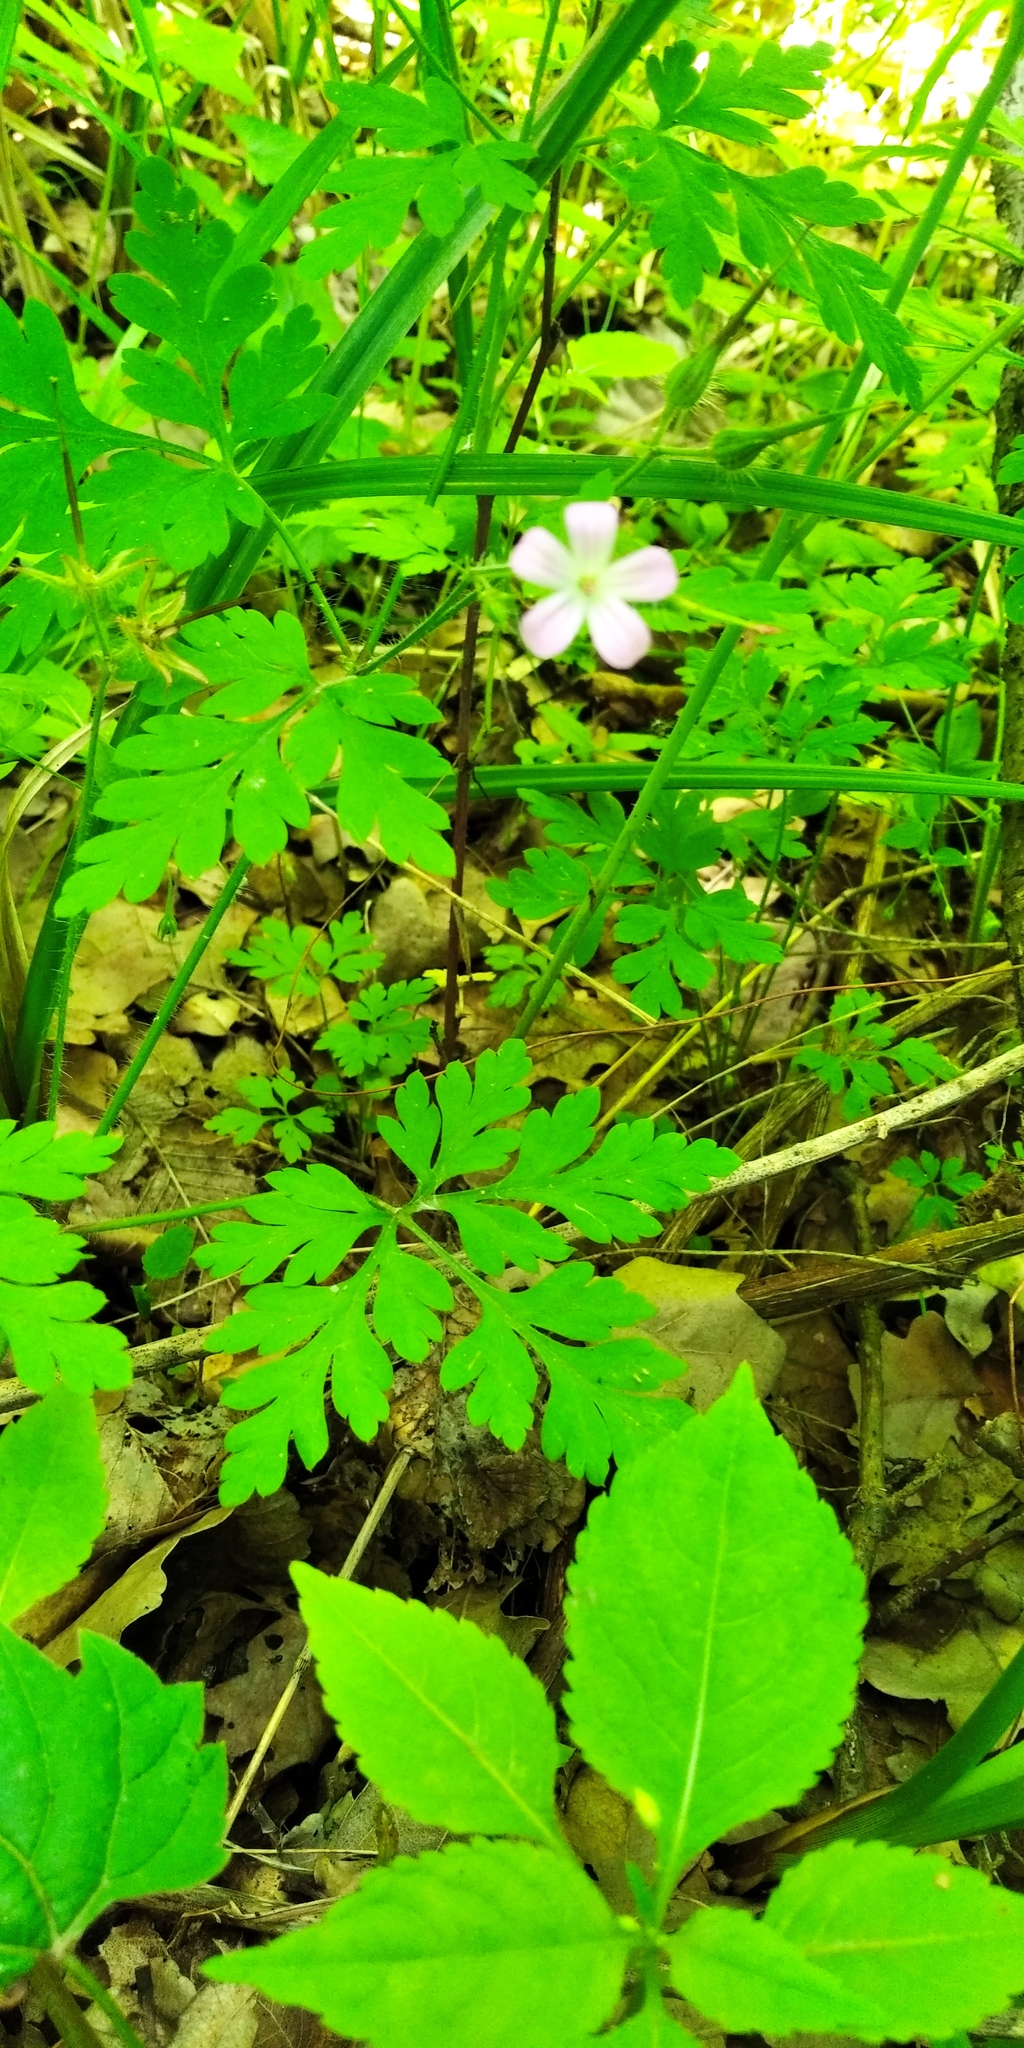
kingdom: Plantae
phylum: Tracheophyta
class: Magnoliopsida
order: Geraniales
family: Geraniaceae
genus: Geranium
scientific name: Geranium robertianum
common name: Herb-robert
